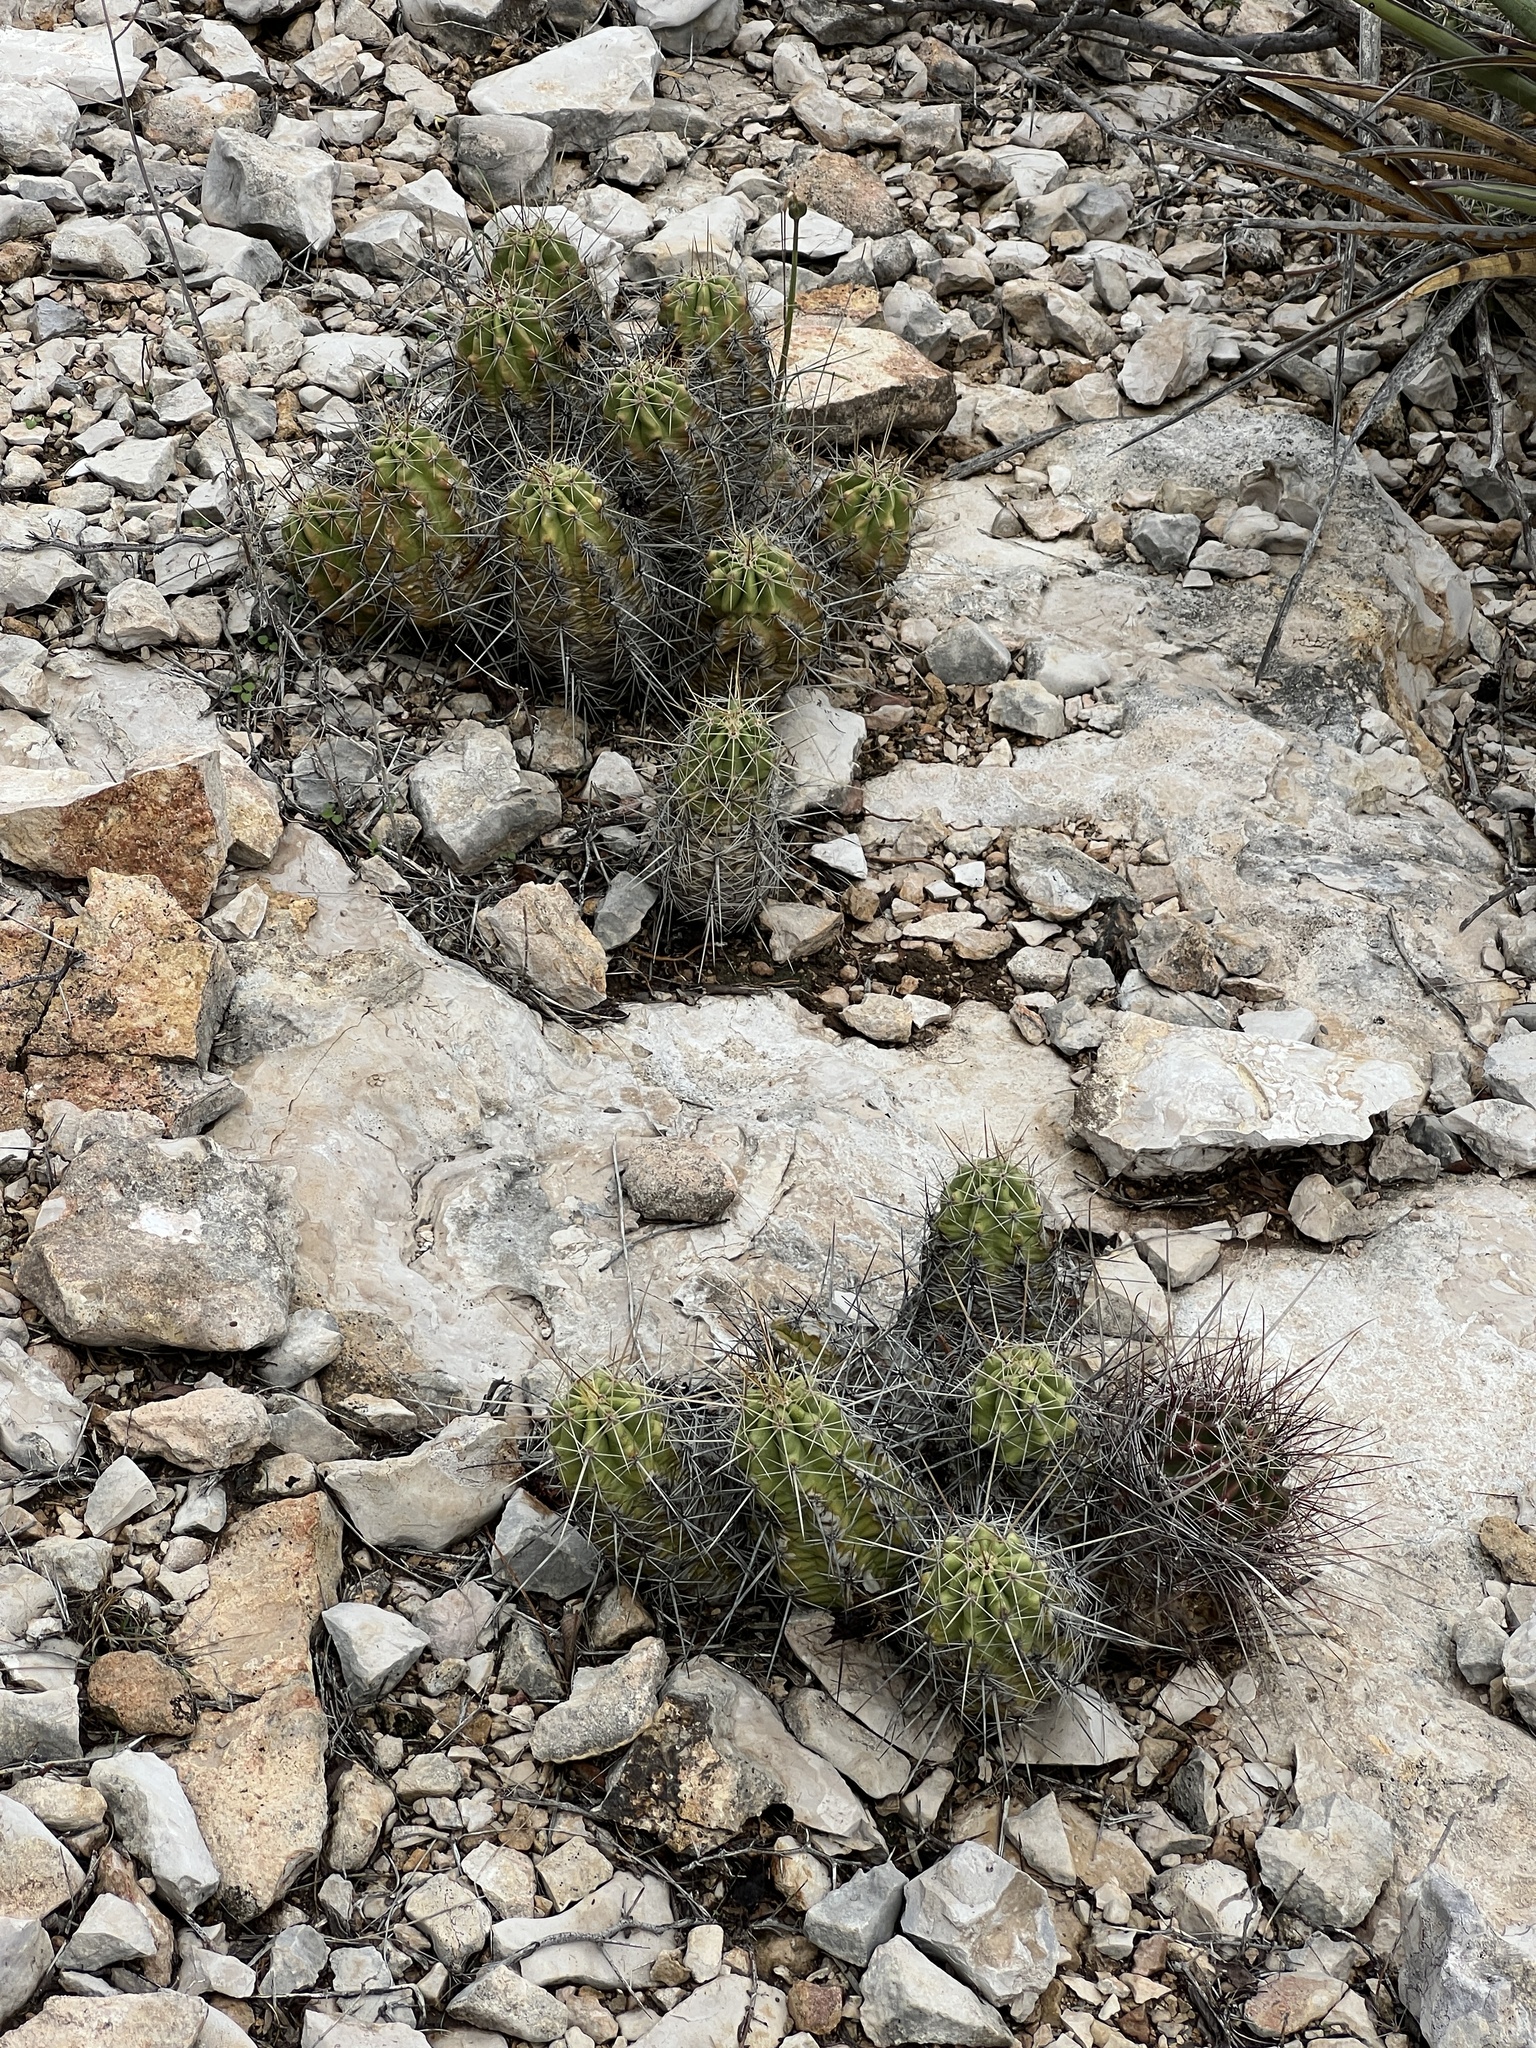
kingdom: Plantae
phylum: Tracheophyta
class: Magnoliopsida
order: Caryophyllales
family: Cactaceae
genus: Echinocereus
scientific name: Echinocereus enneacanthus
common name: Pitaya
